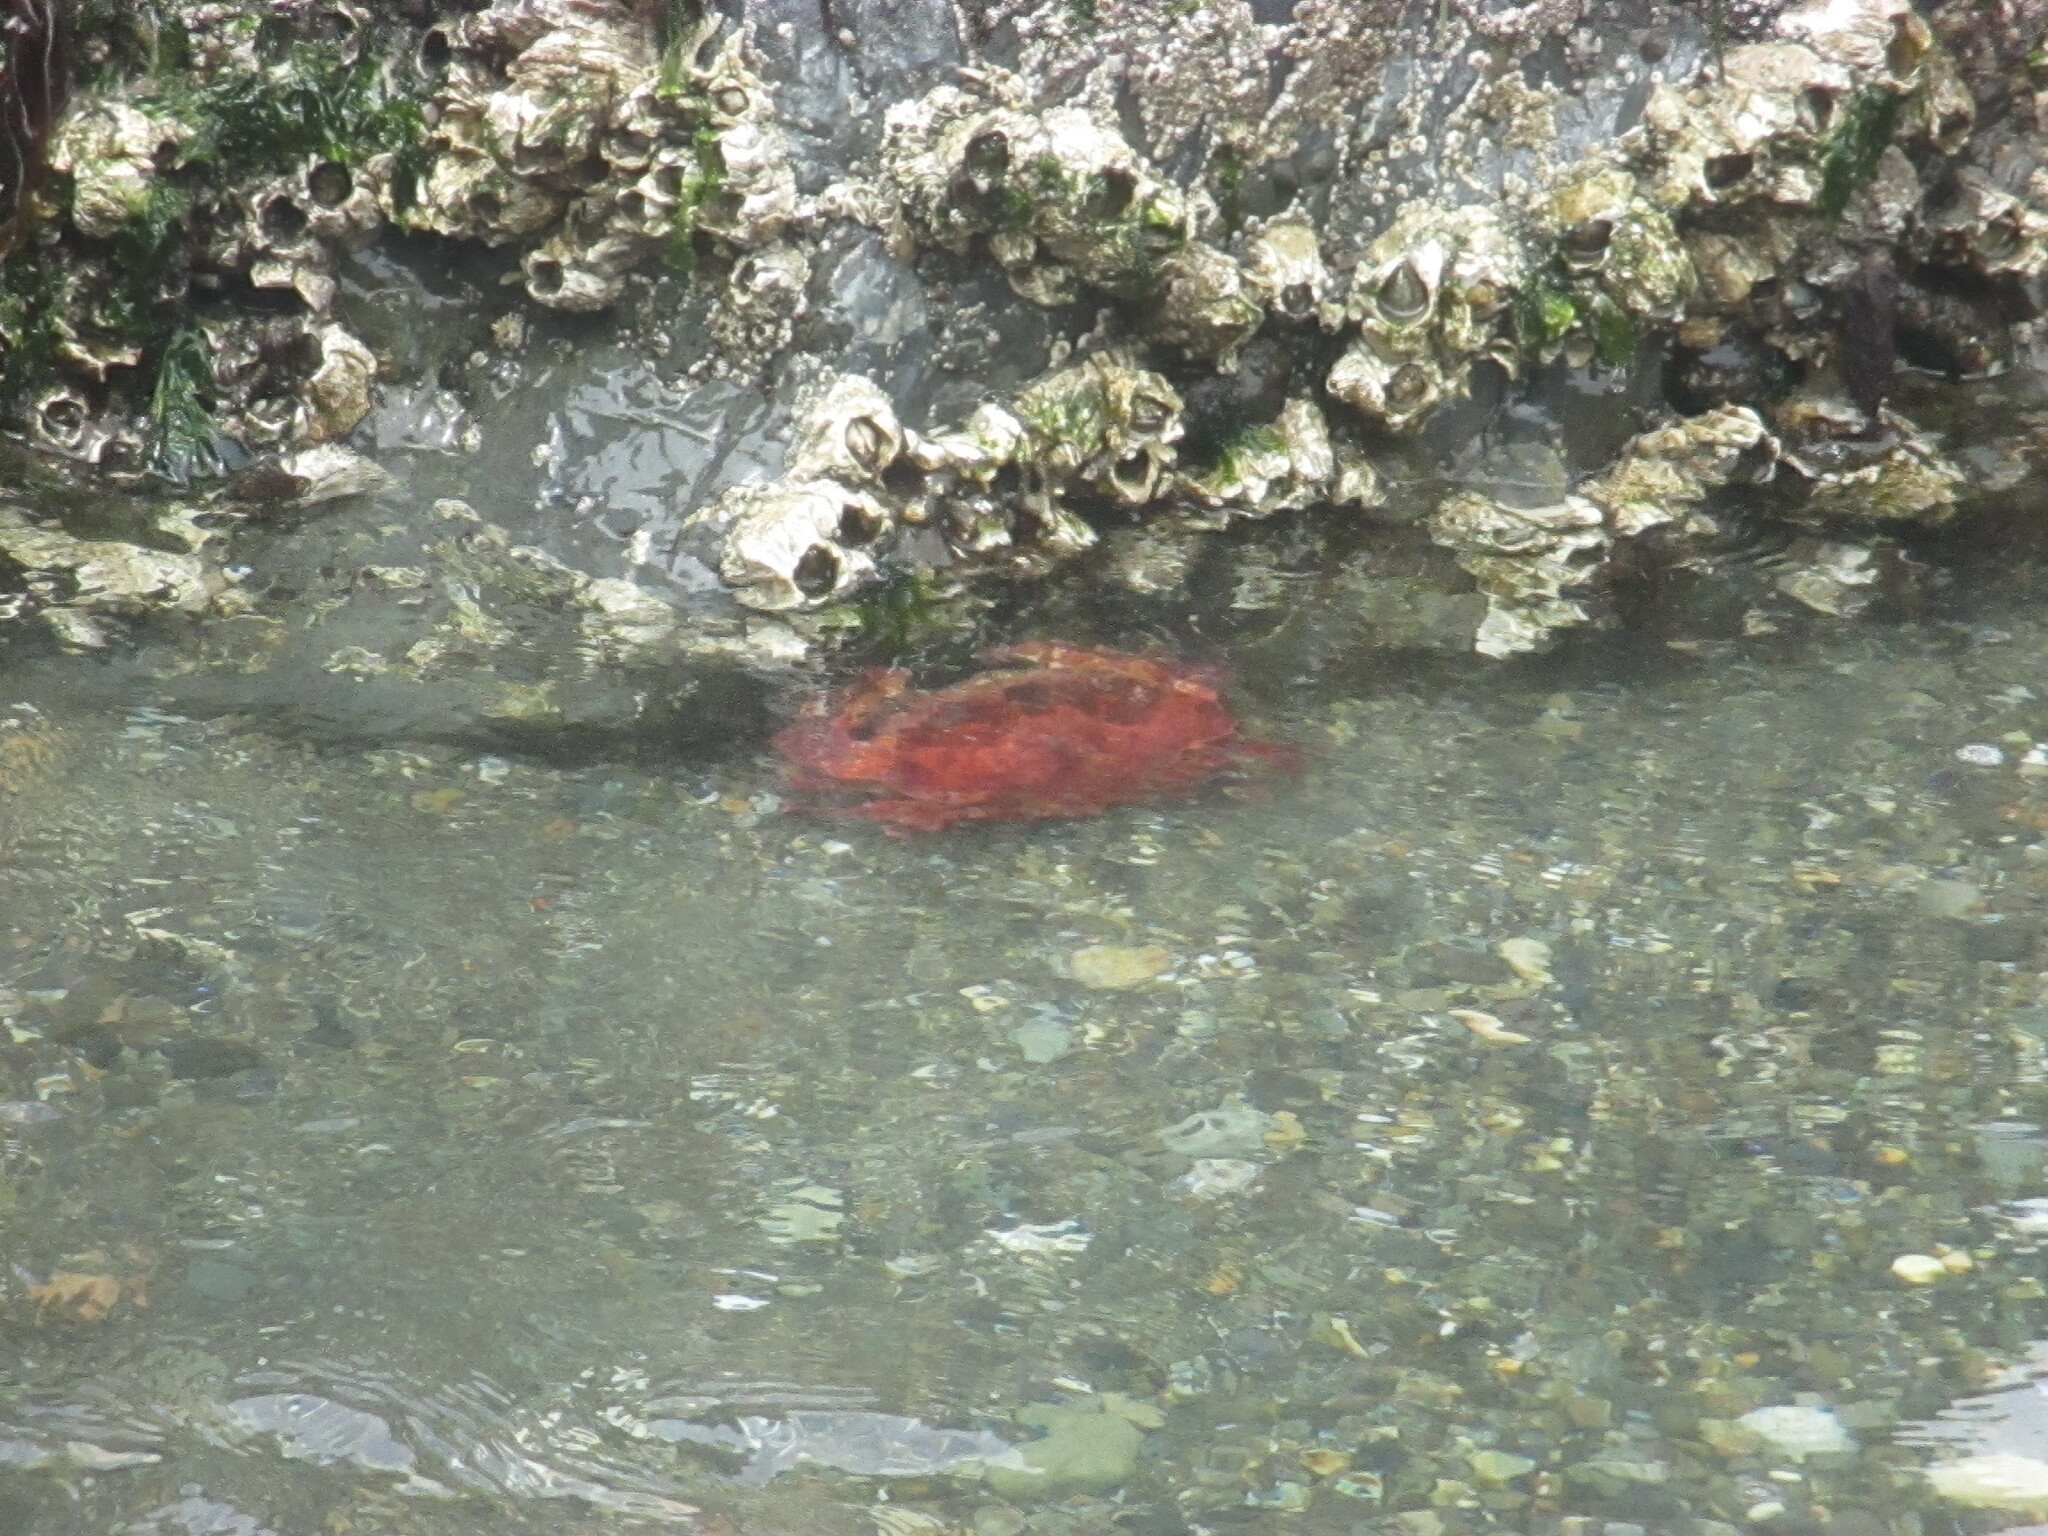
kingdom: Animalia
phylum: Arthropoda
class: Malacostraca
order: Decapoda
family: Cancridae
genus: Cancer
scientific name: Cancer productus
